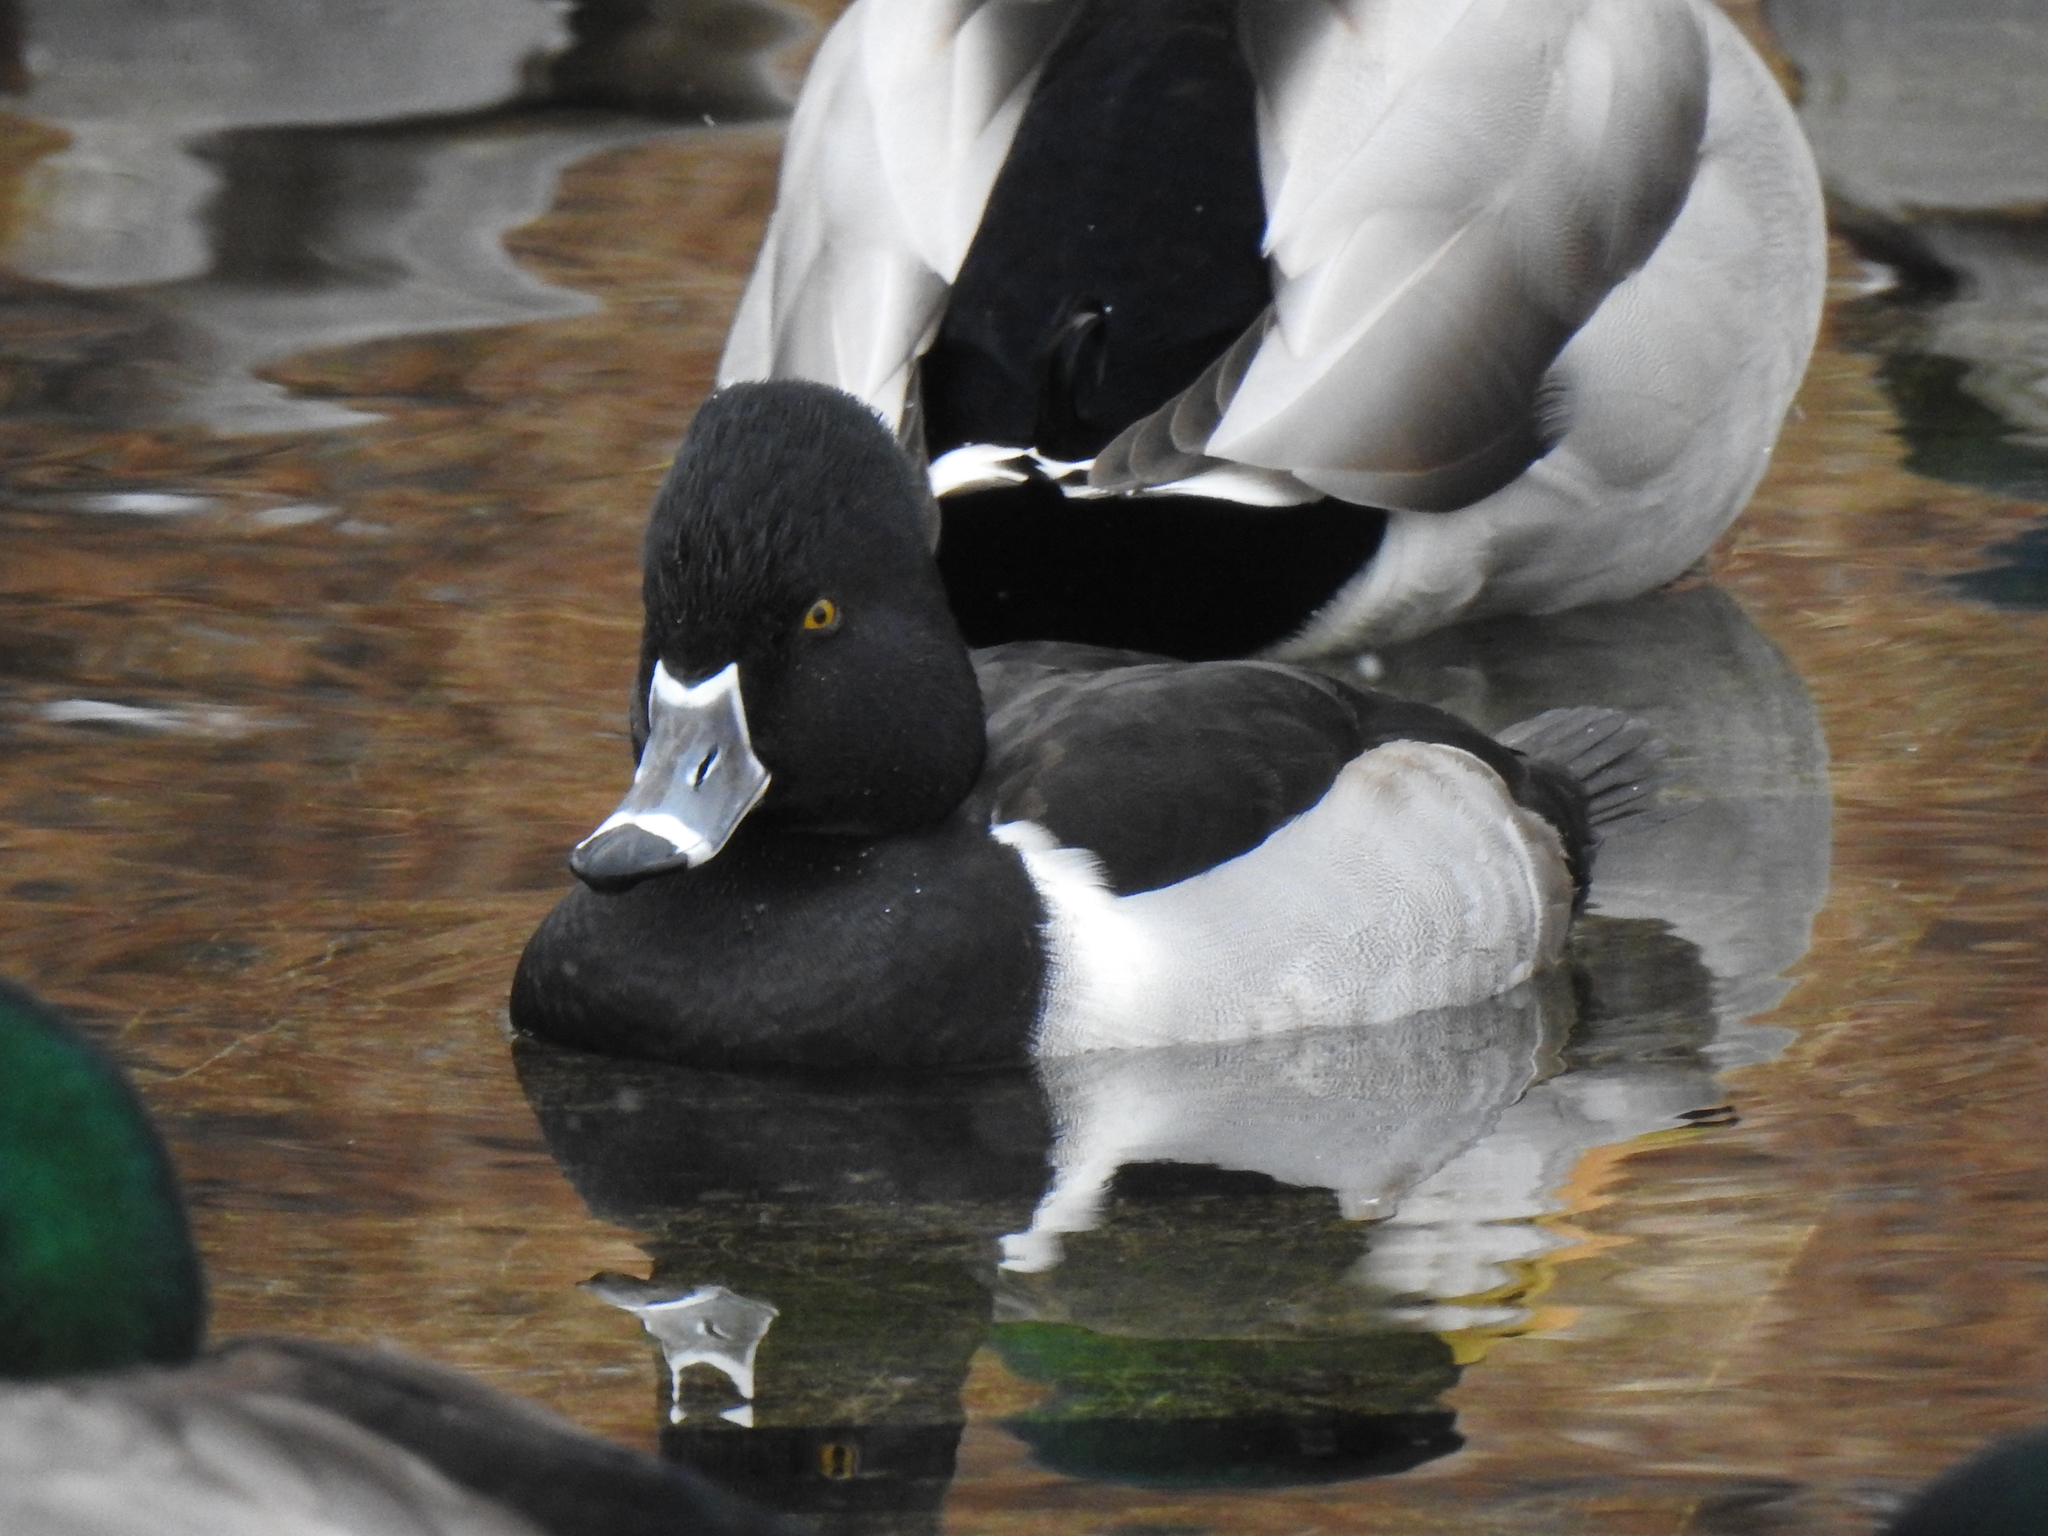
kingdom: Animalia
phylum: Chordata
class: Aves
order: Anseriformes
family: Anatidae
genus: Aythya
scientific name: Aythya collaris
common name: Ring-necked duck
